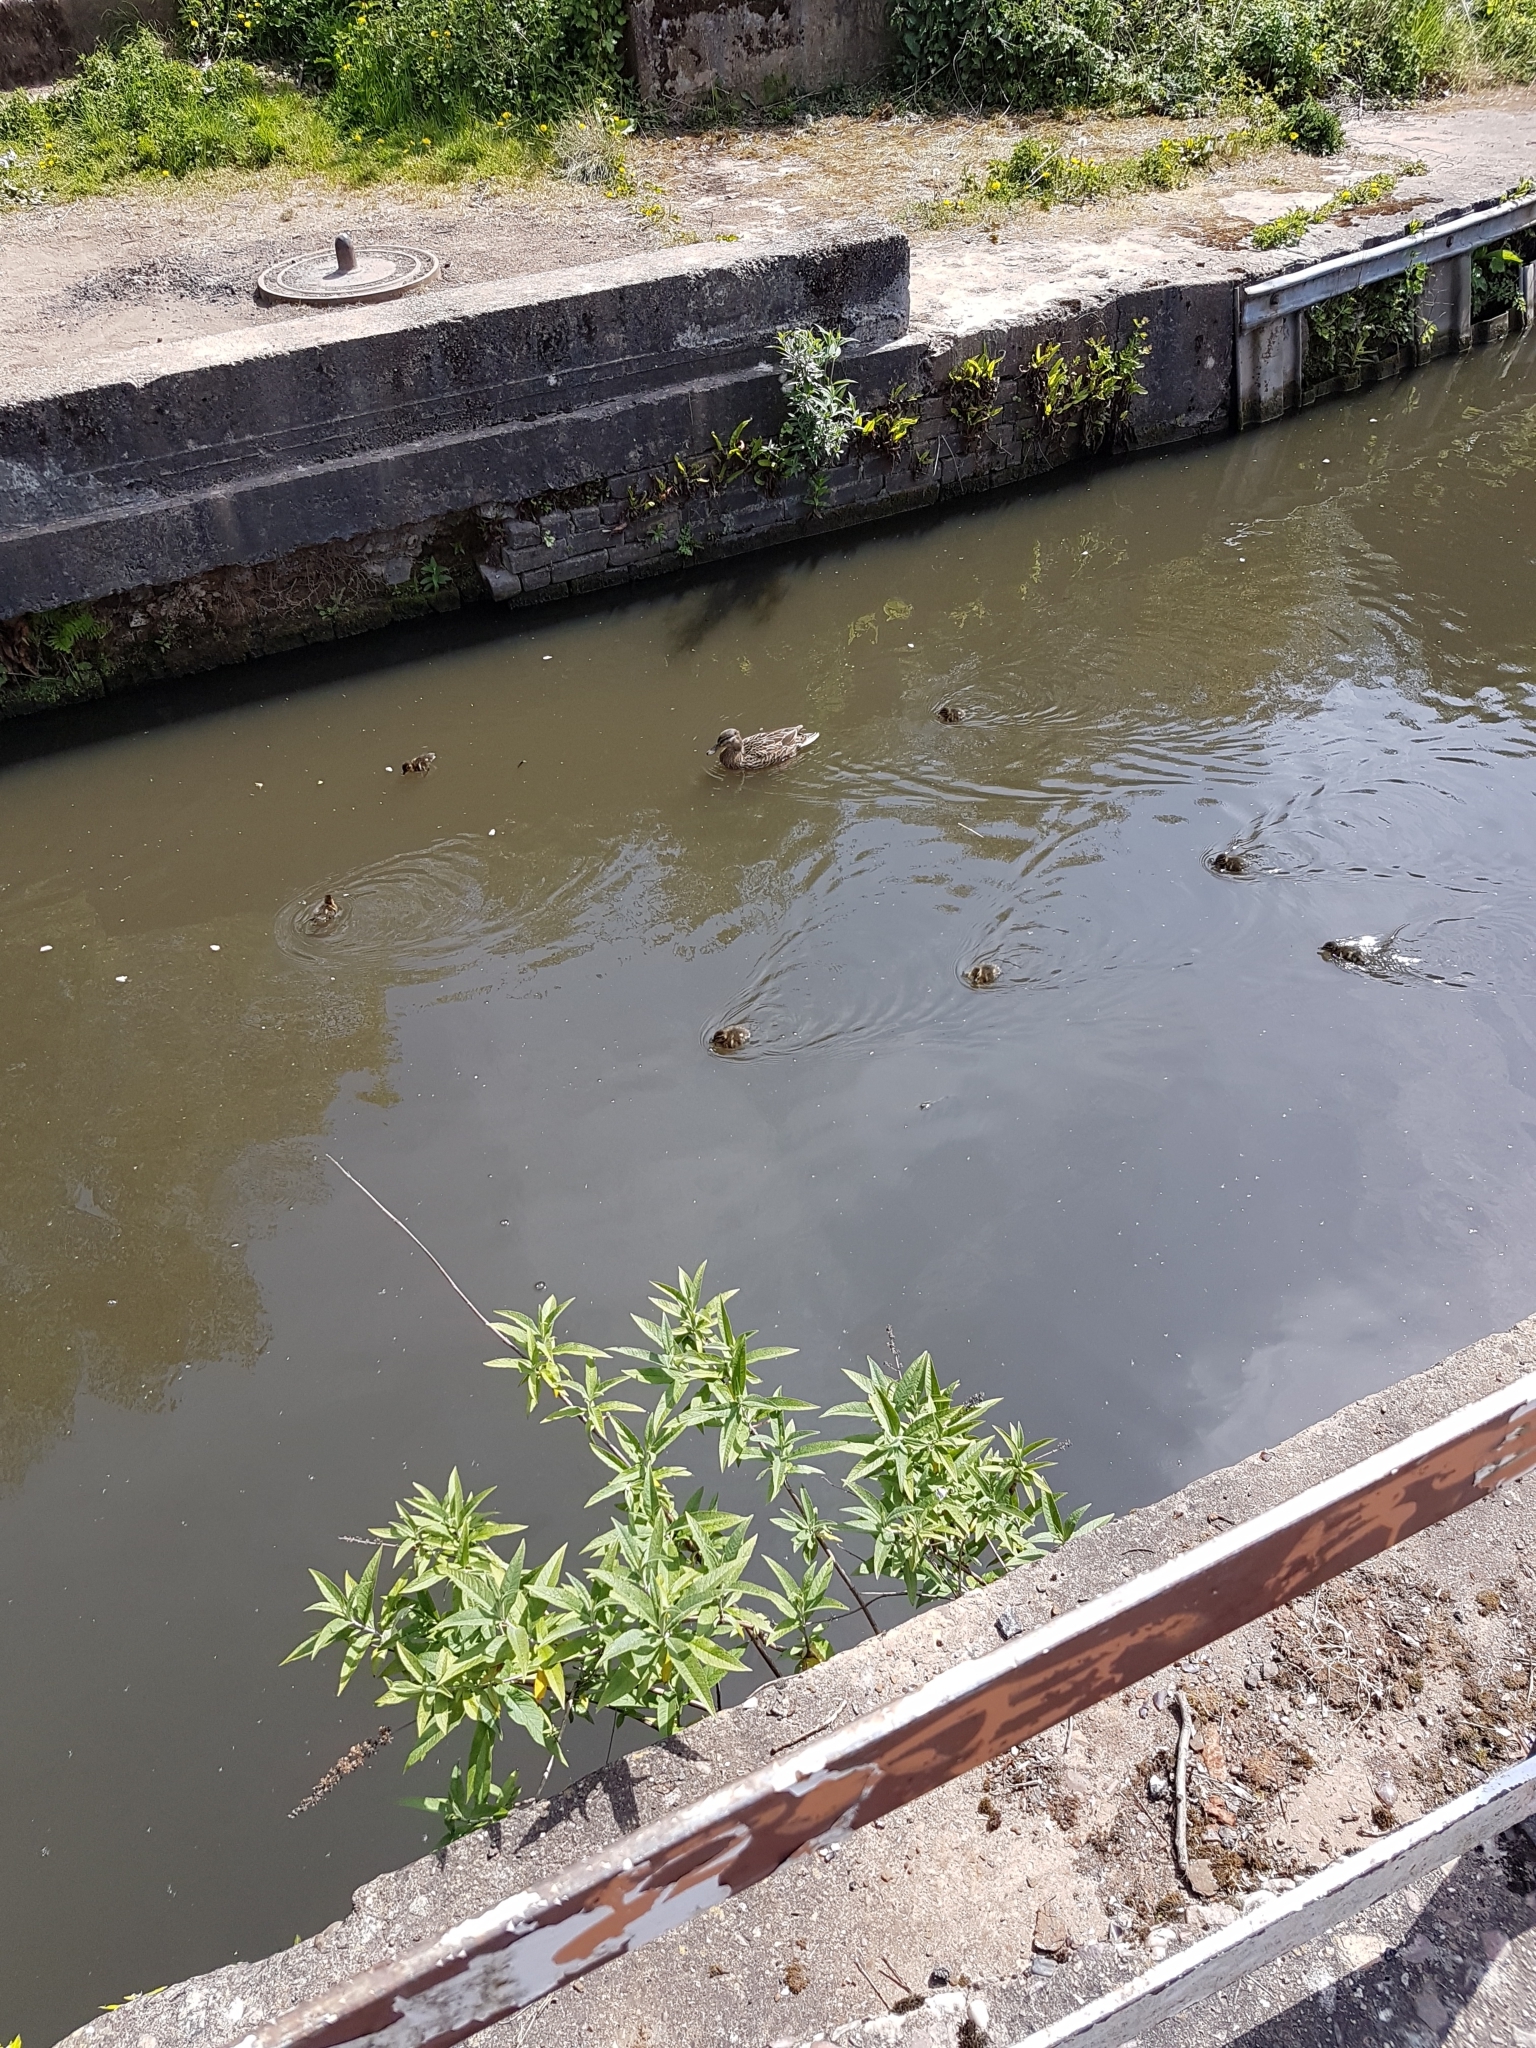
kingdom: Animalia
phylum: Chordata
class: Aves
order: Anseriformes
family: Anatidae
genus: Anas
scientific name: Anas platyrhynchos
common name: Mallard
